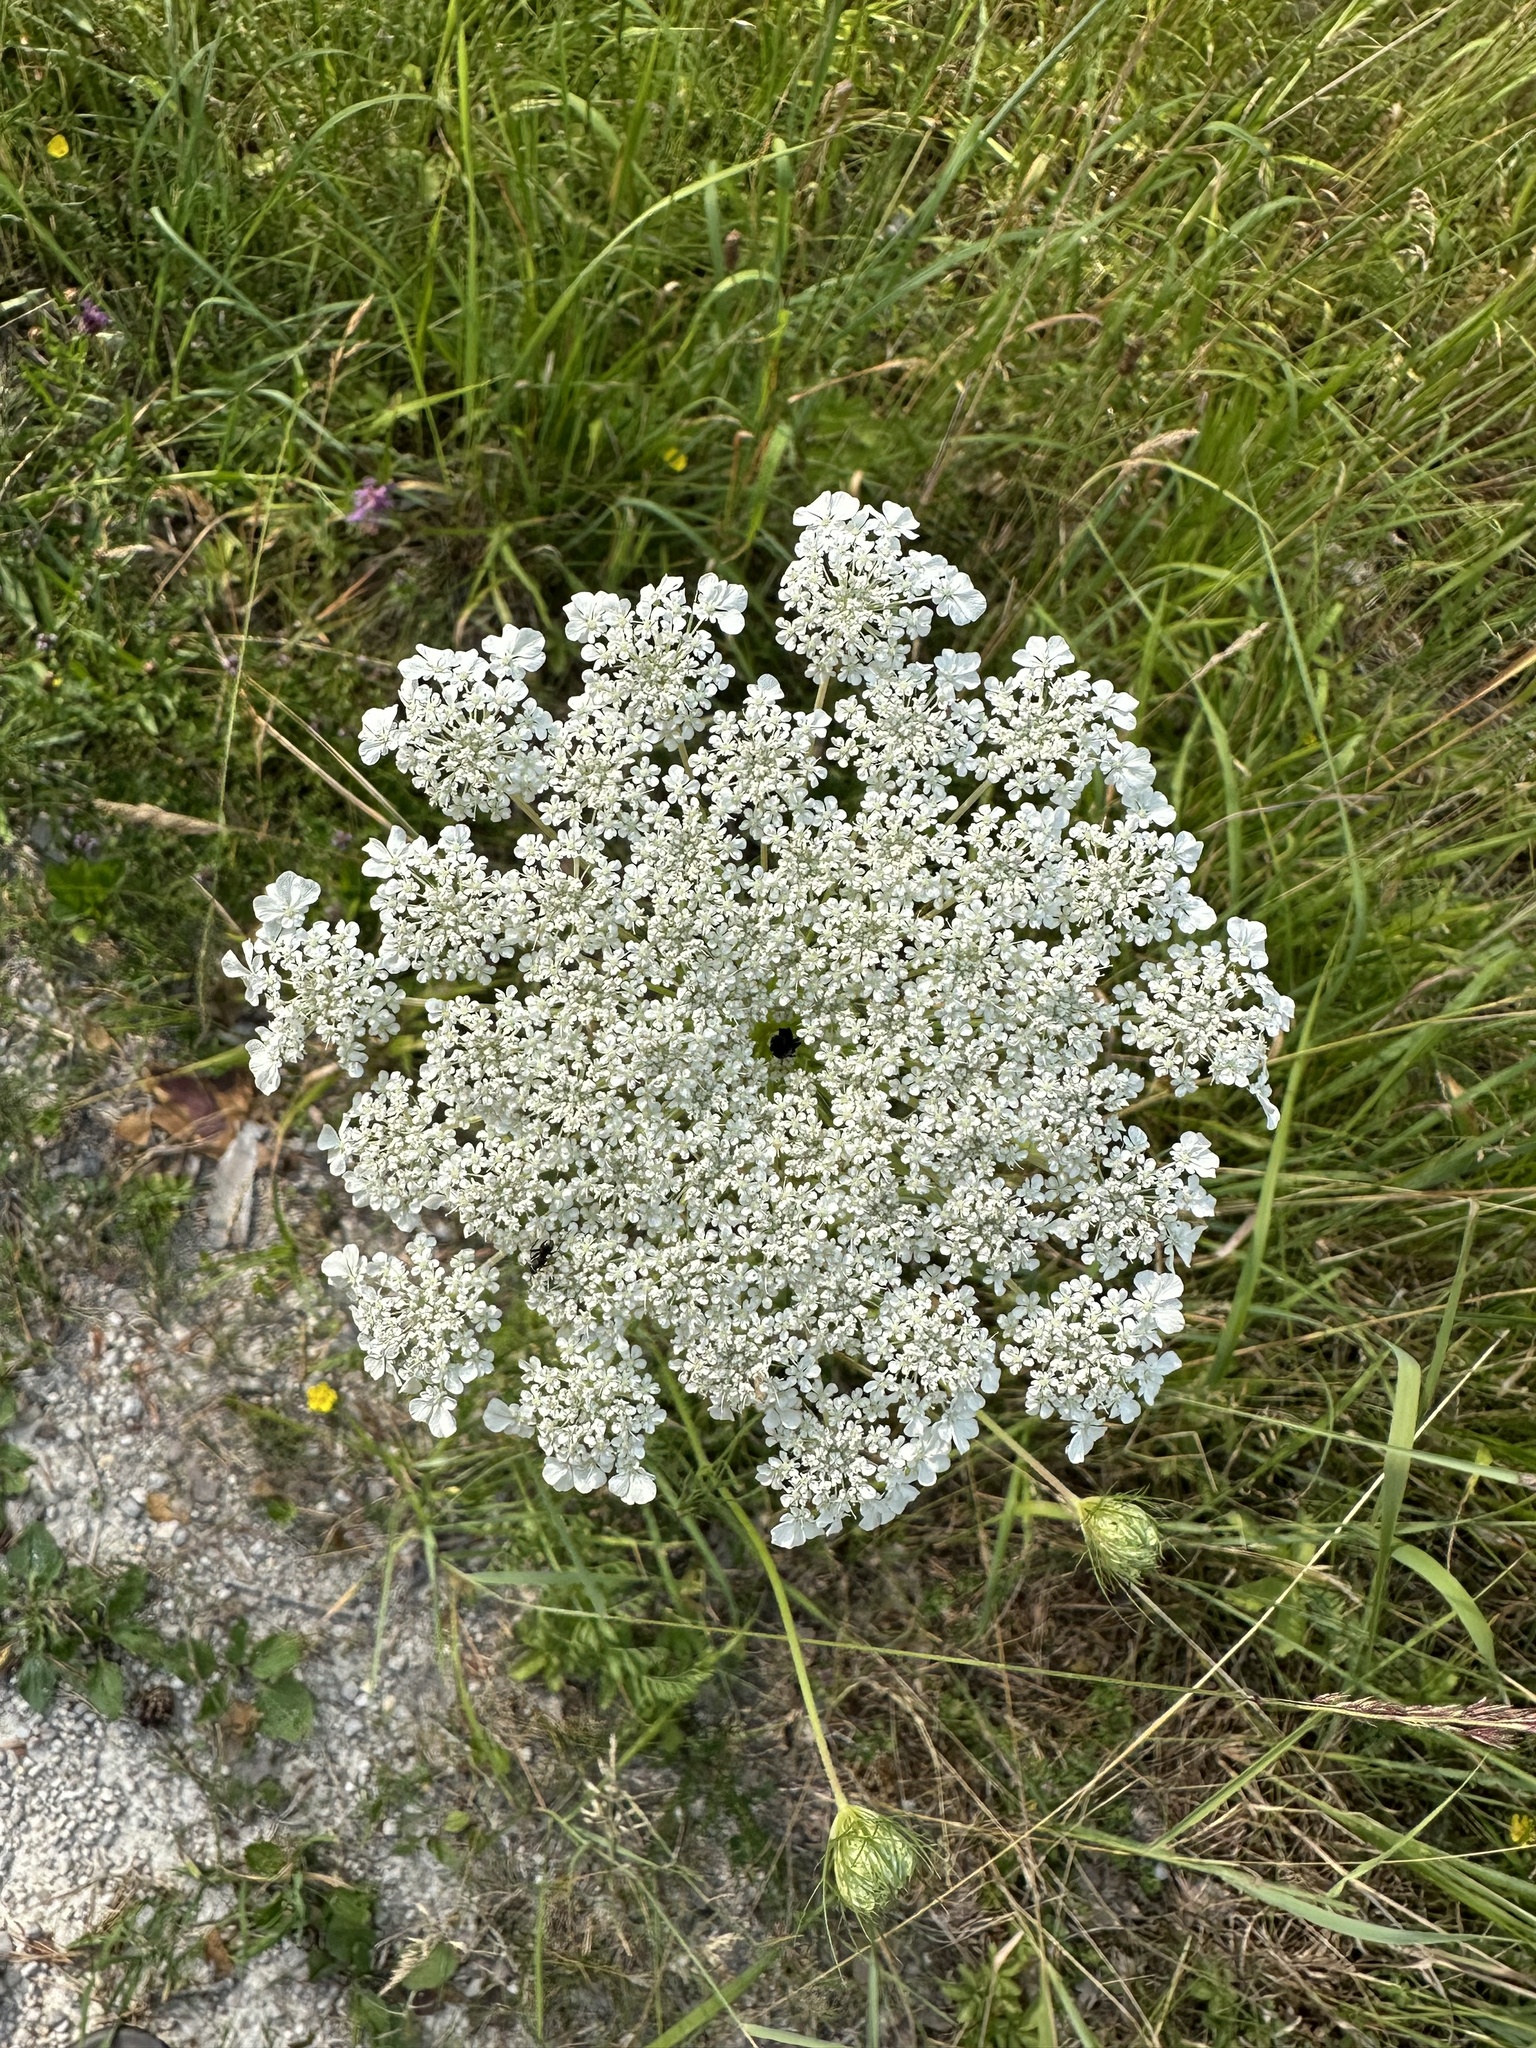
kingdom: Plantae
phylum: Tracheophyta
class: Magnoliopsida
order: Apiales
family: Apiaceae
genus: Daucus
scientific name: Daucus carota
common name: Wild carrot
